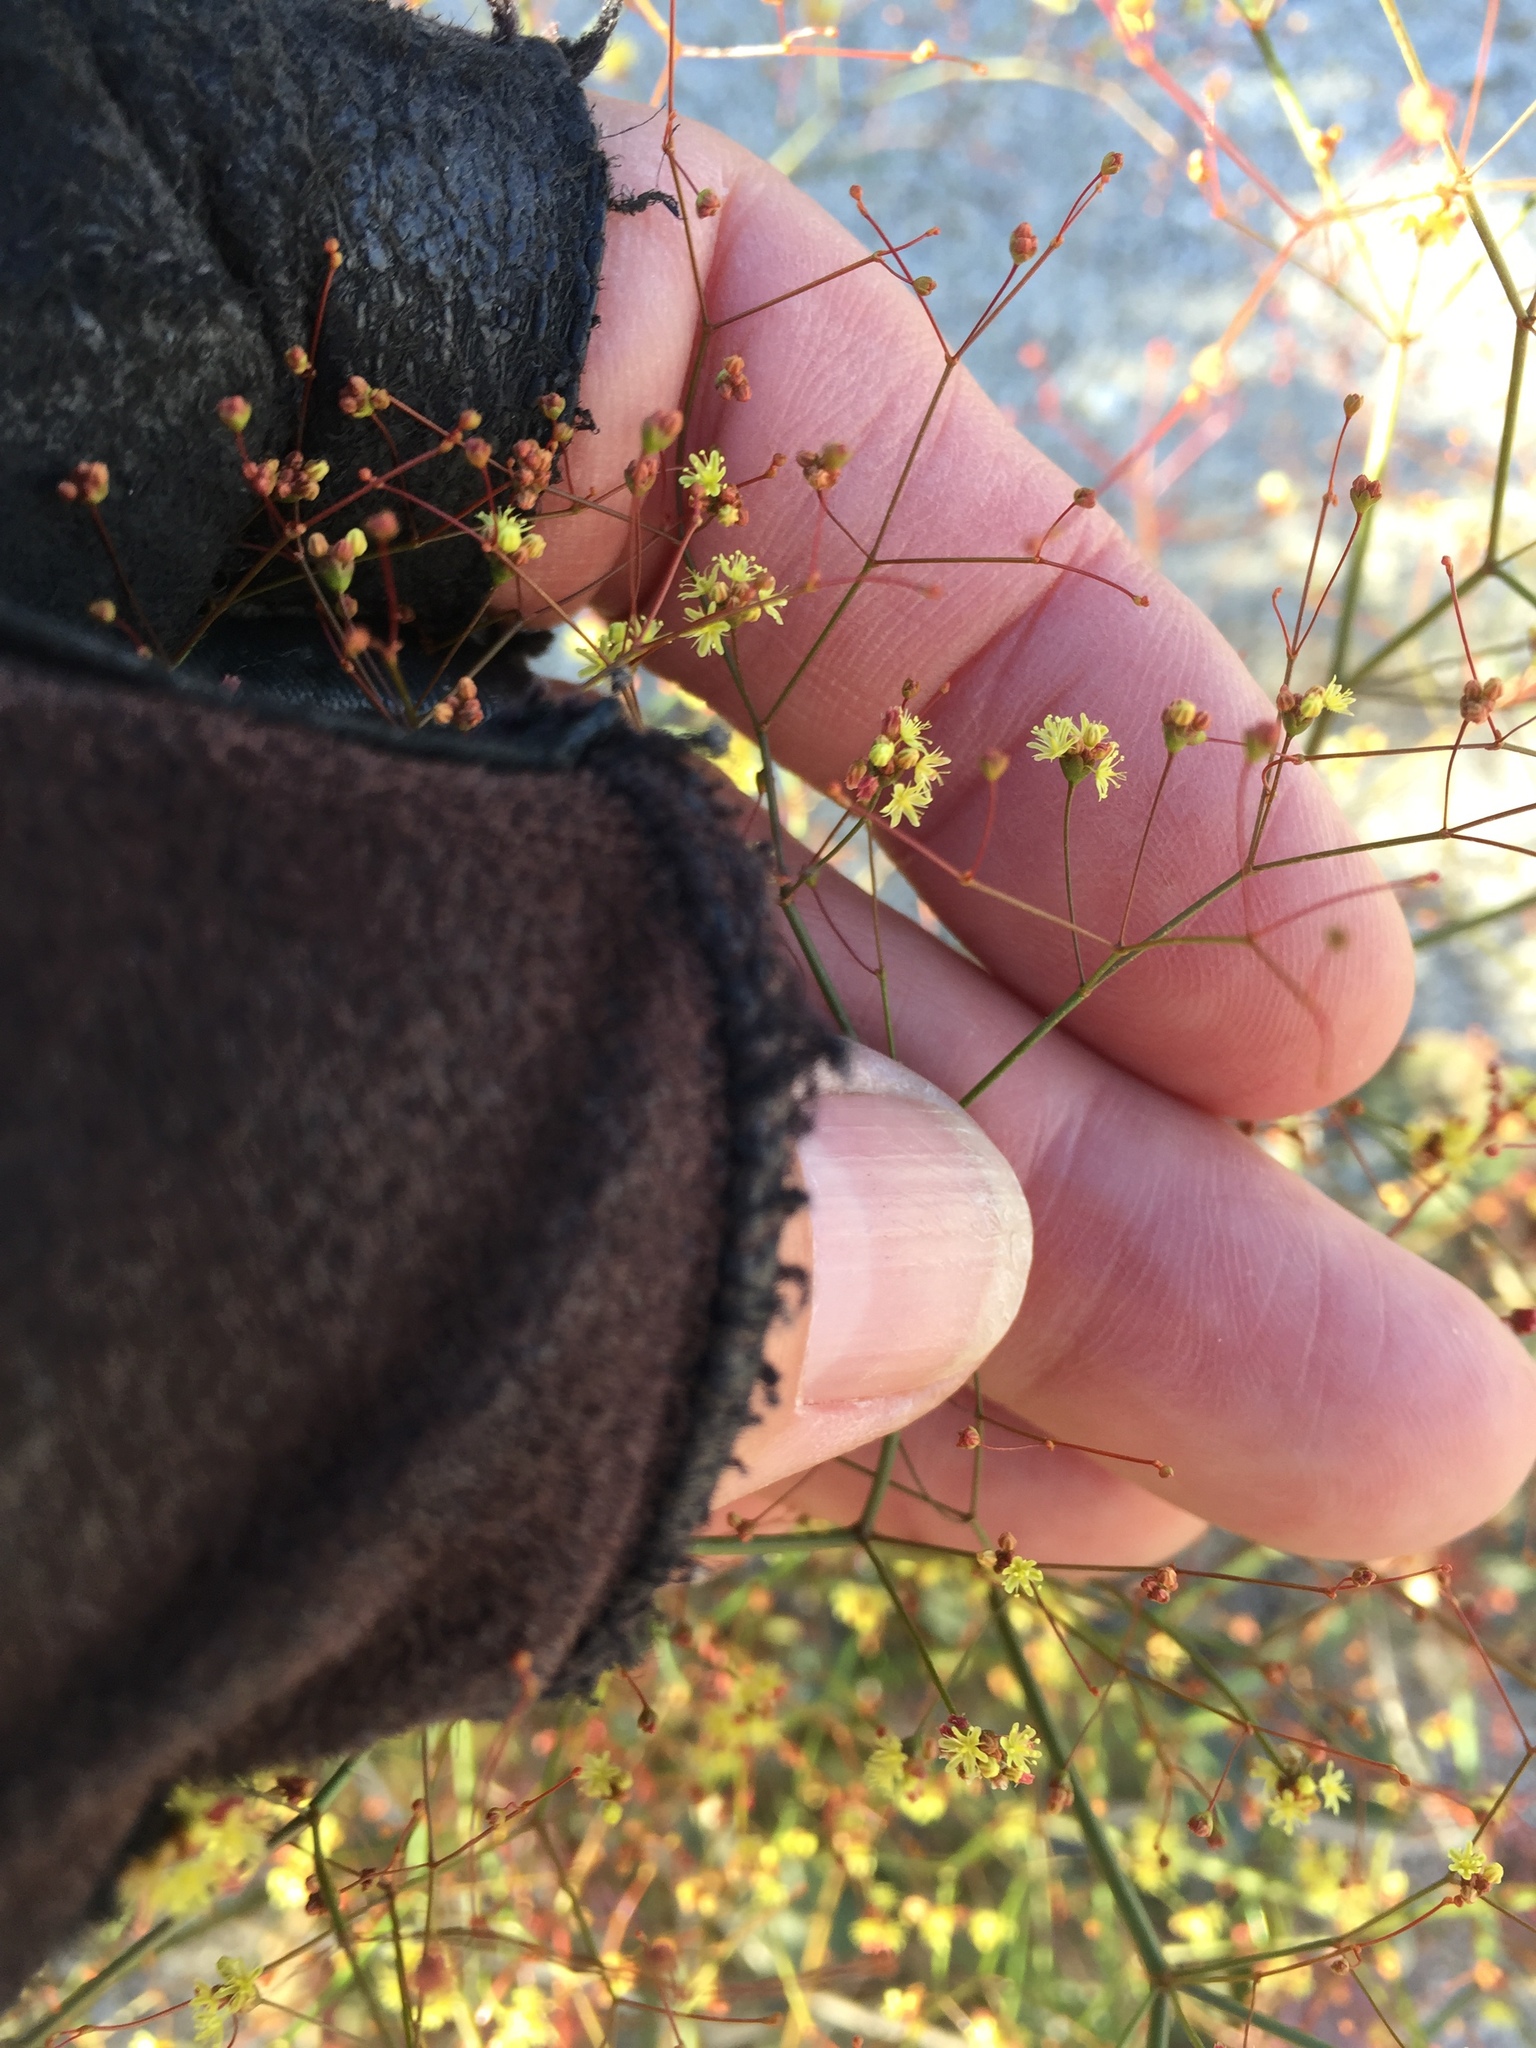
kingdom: Plantae
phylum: Tracheophyta
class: Magnoliopsida
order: Caryophyllales
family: Polygonaceae
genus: Eriogonum
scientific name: Eriogonum thomasii
